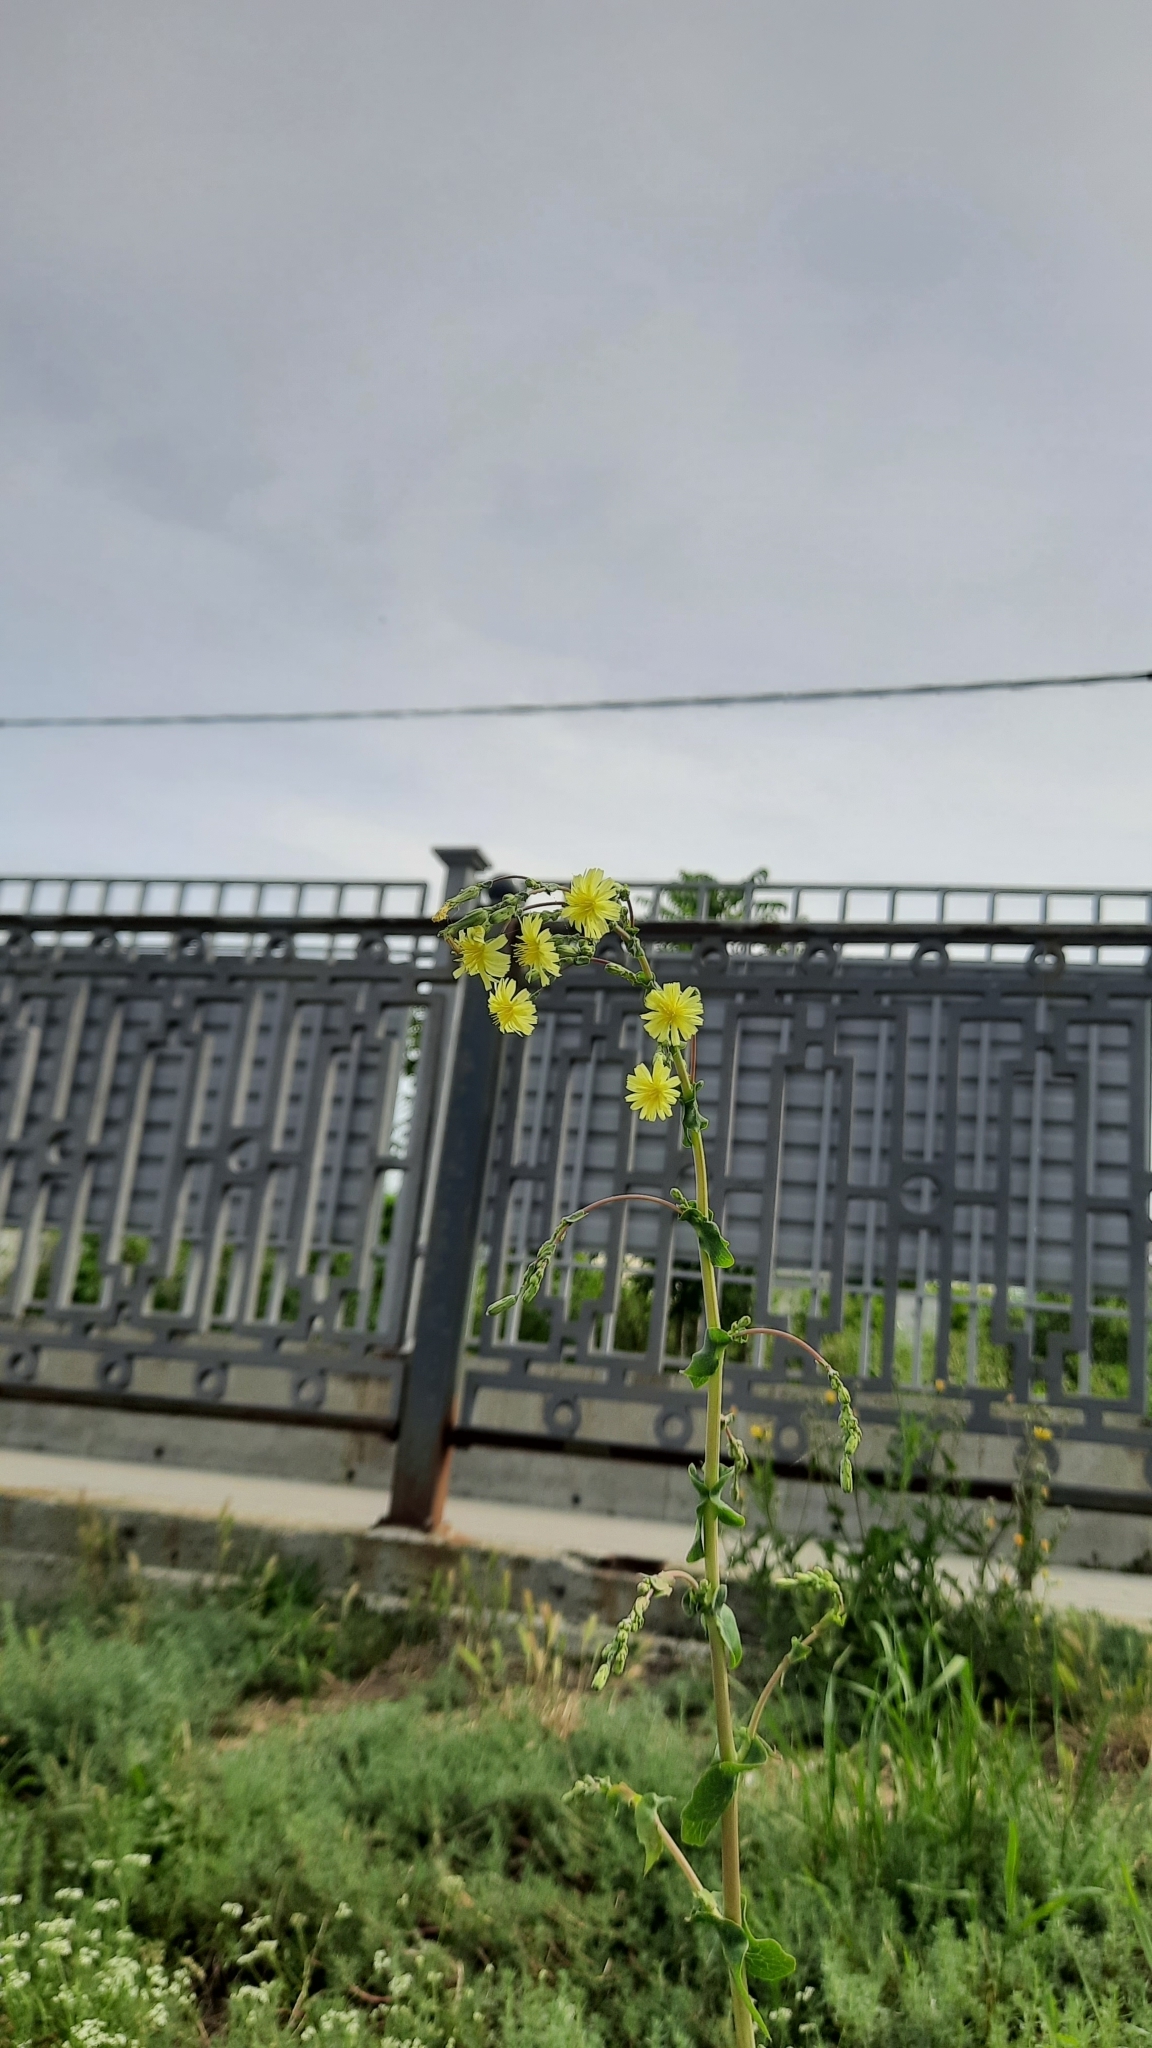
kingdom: Plantae
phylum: Tracheophyta
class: Magnoliopsida
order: Asterales
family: Asteraceae
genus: Lactuca
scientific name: Lactuca serriola
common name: Prickly lettuce
